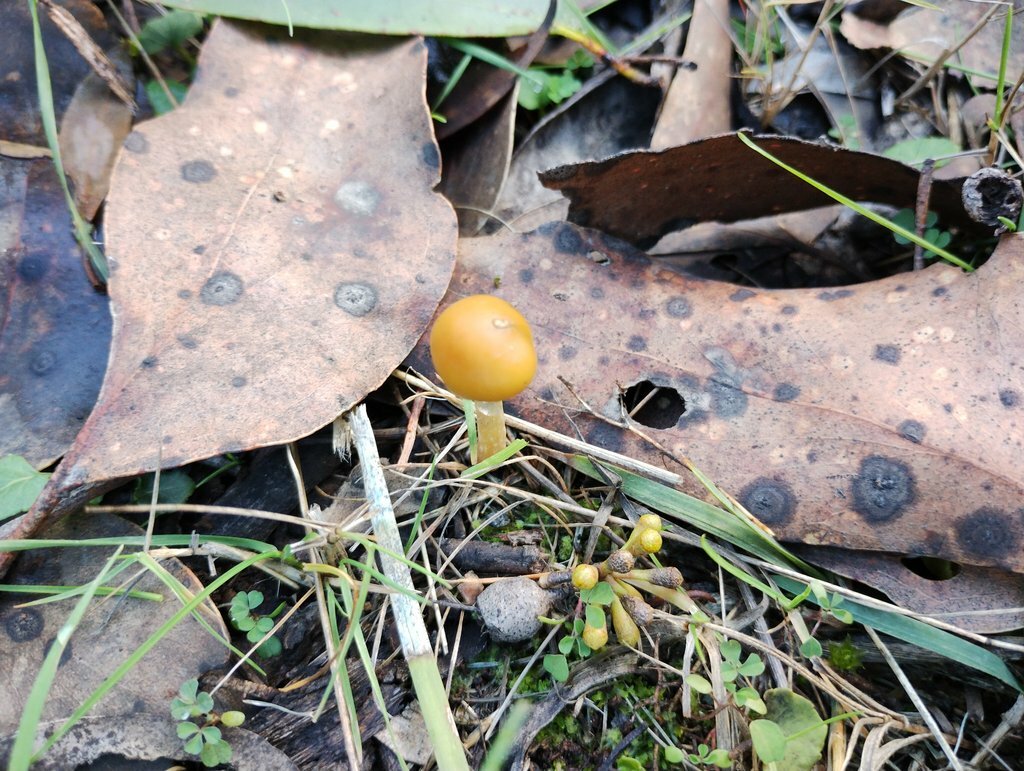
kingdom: Fungi
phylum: Basidiomycota
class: Agaricomycetes
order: Agaricales
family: Hymenogastraceae
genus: Psilocybe
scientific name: Psilocybe subaeruginosa
